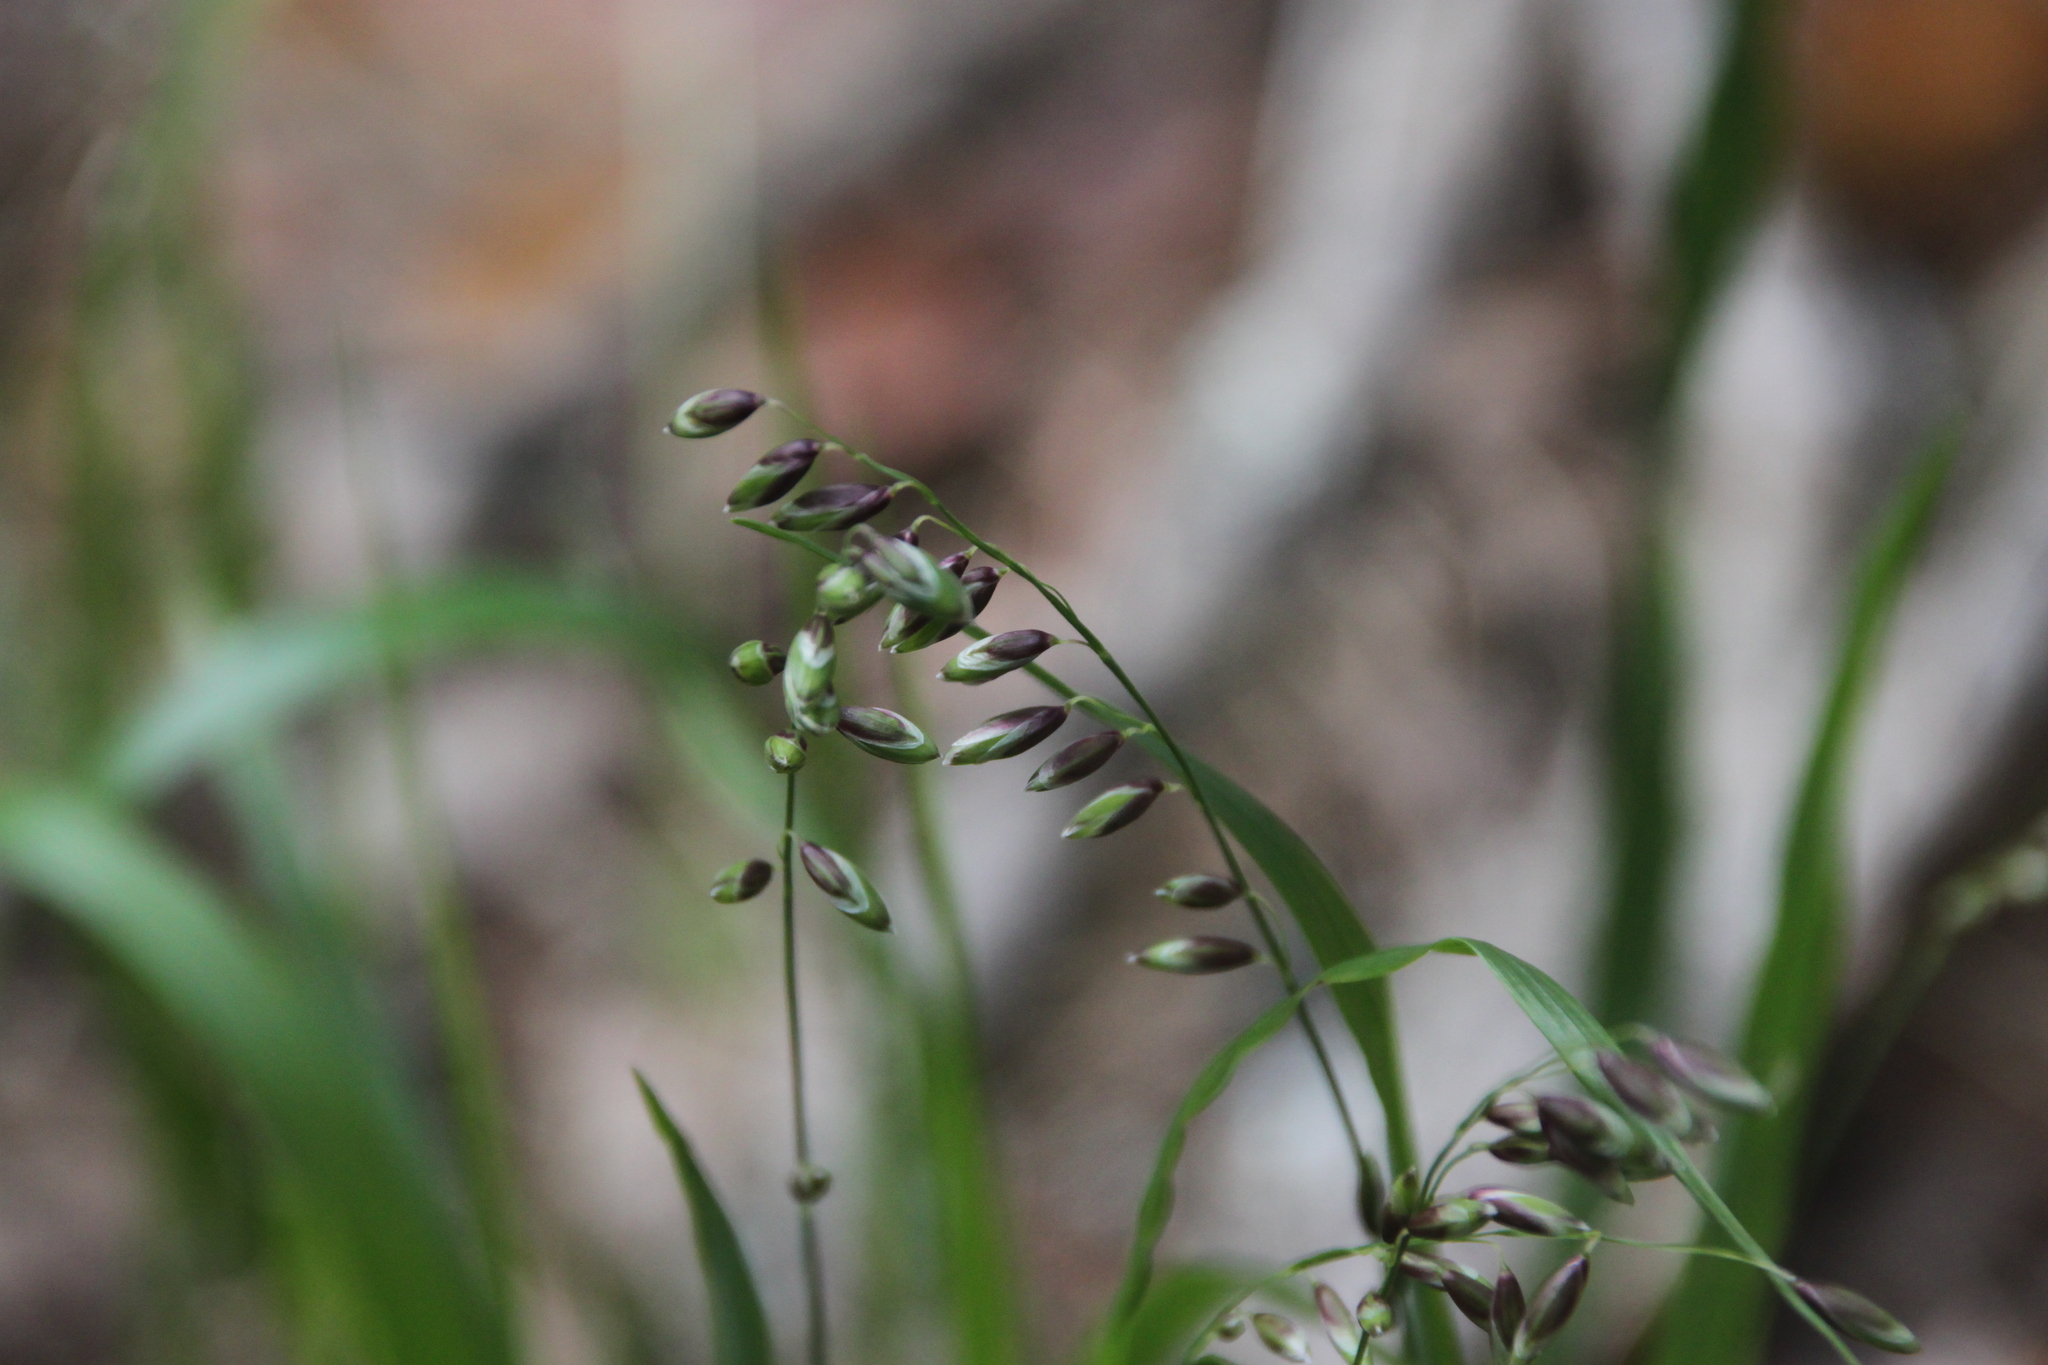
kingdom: Plantae
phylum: Tracheophyta
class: Liliopsida
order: Poales
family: Poaceae
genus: Melica
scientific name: Melica nutans
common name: Mountain melick
